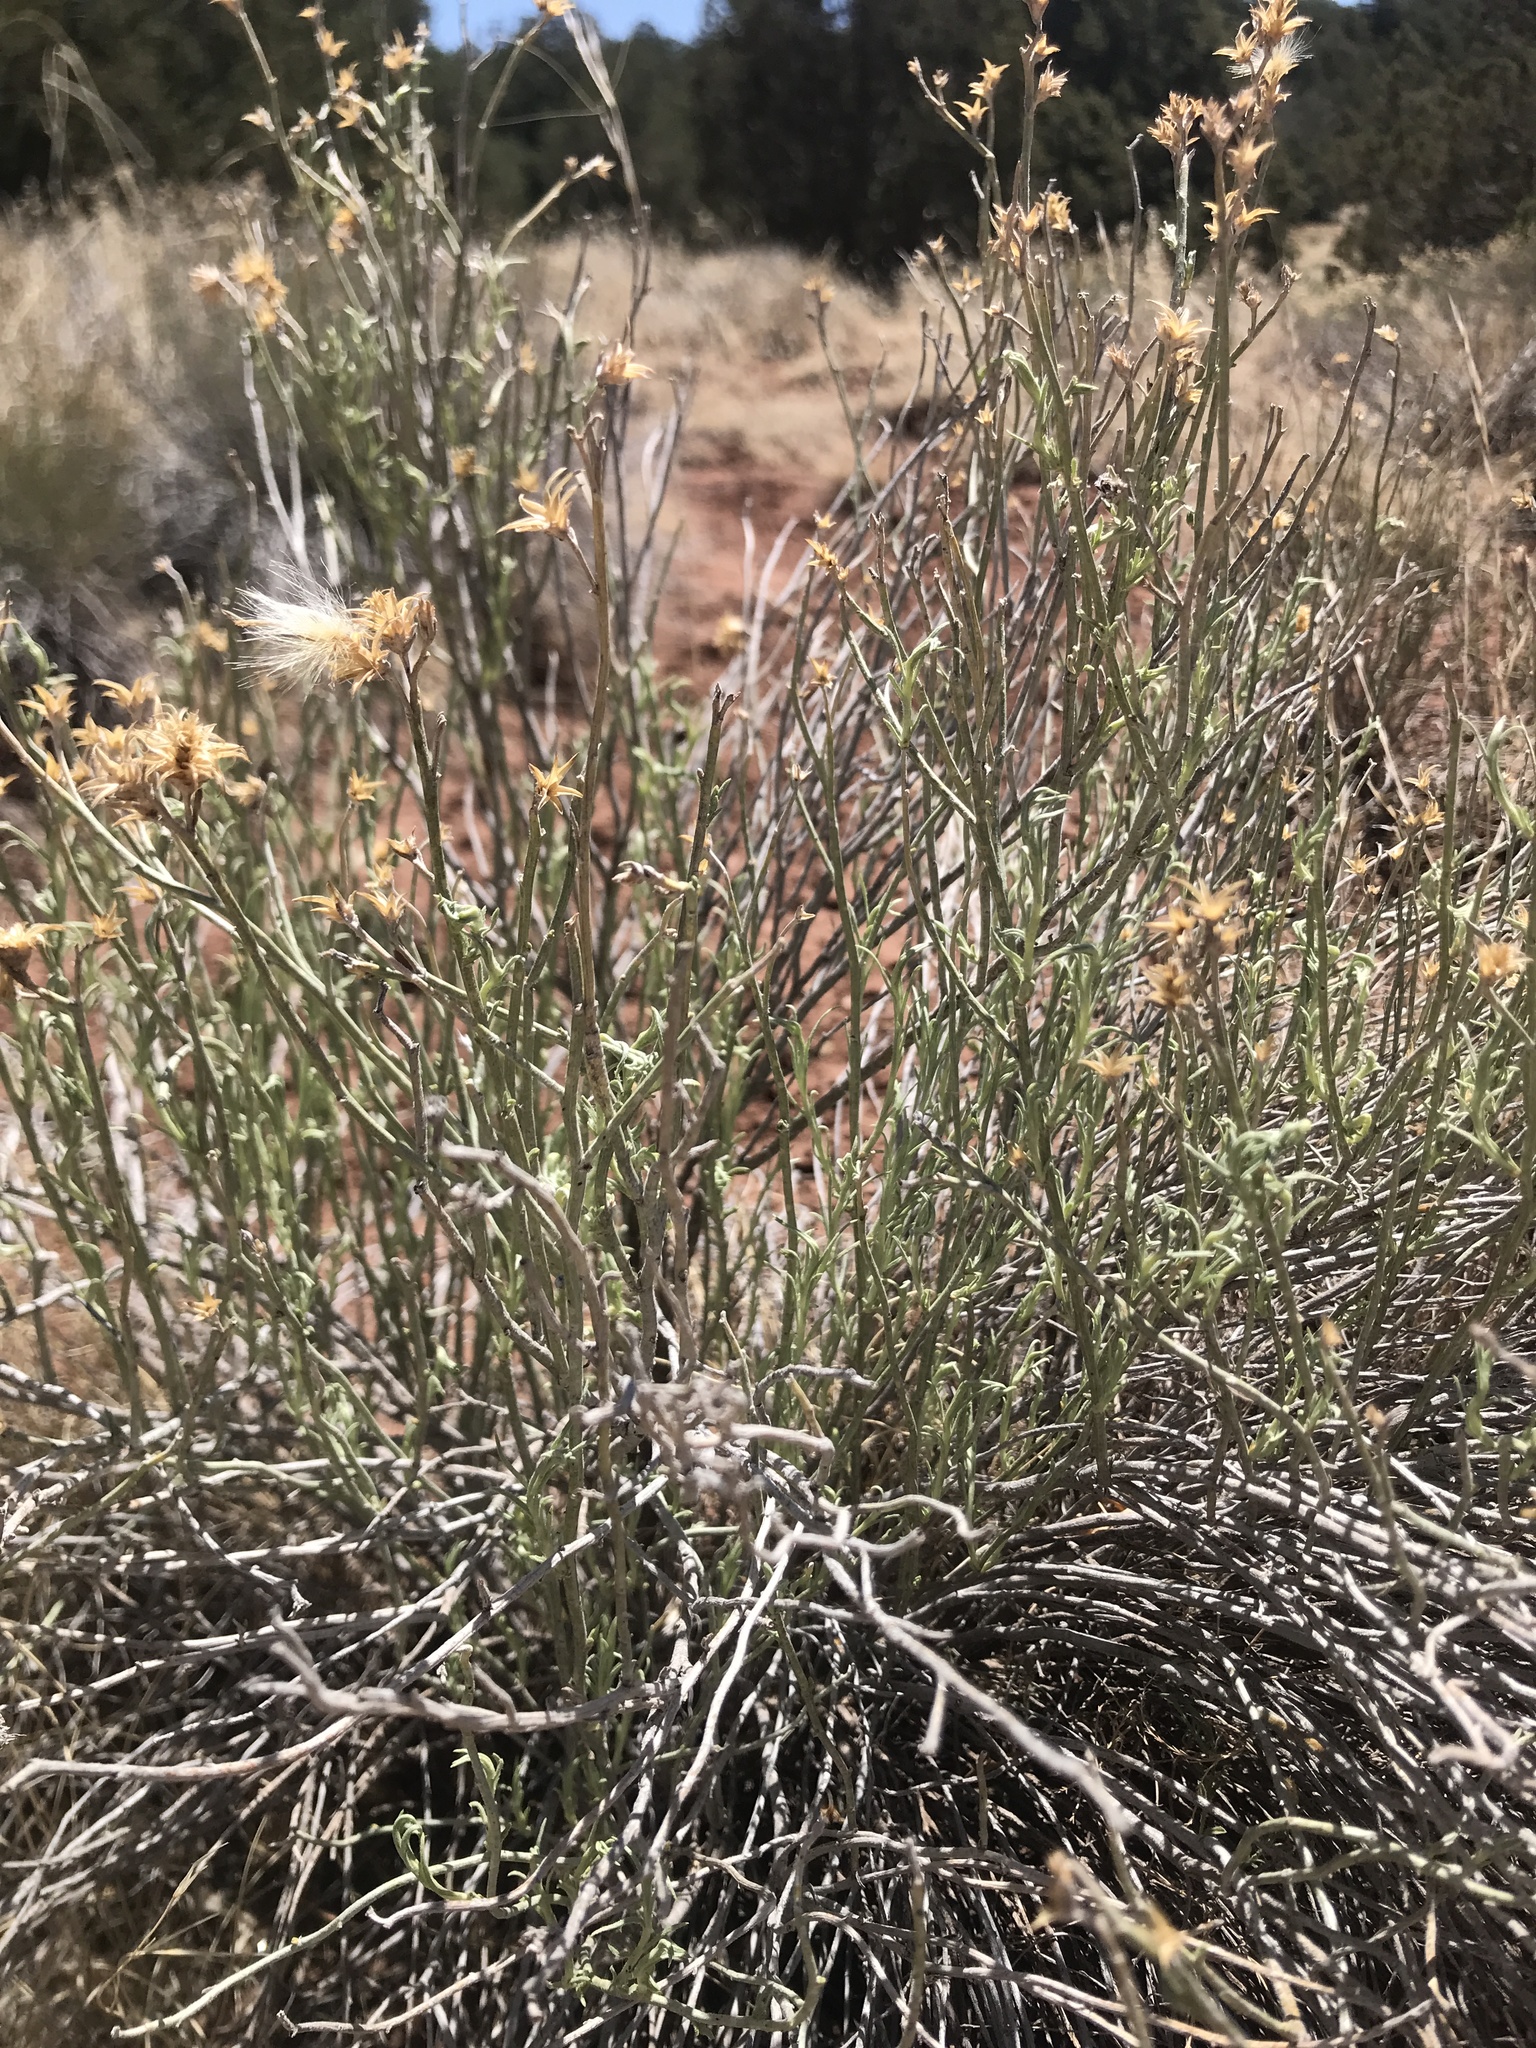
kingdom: Plantae
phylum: Tracheophyta
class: Magnoliopsida
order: Asterales
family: Asteraceae
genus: Ericameria
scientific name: Ericameria nauseosa
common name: Rubber rabbitbrush
